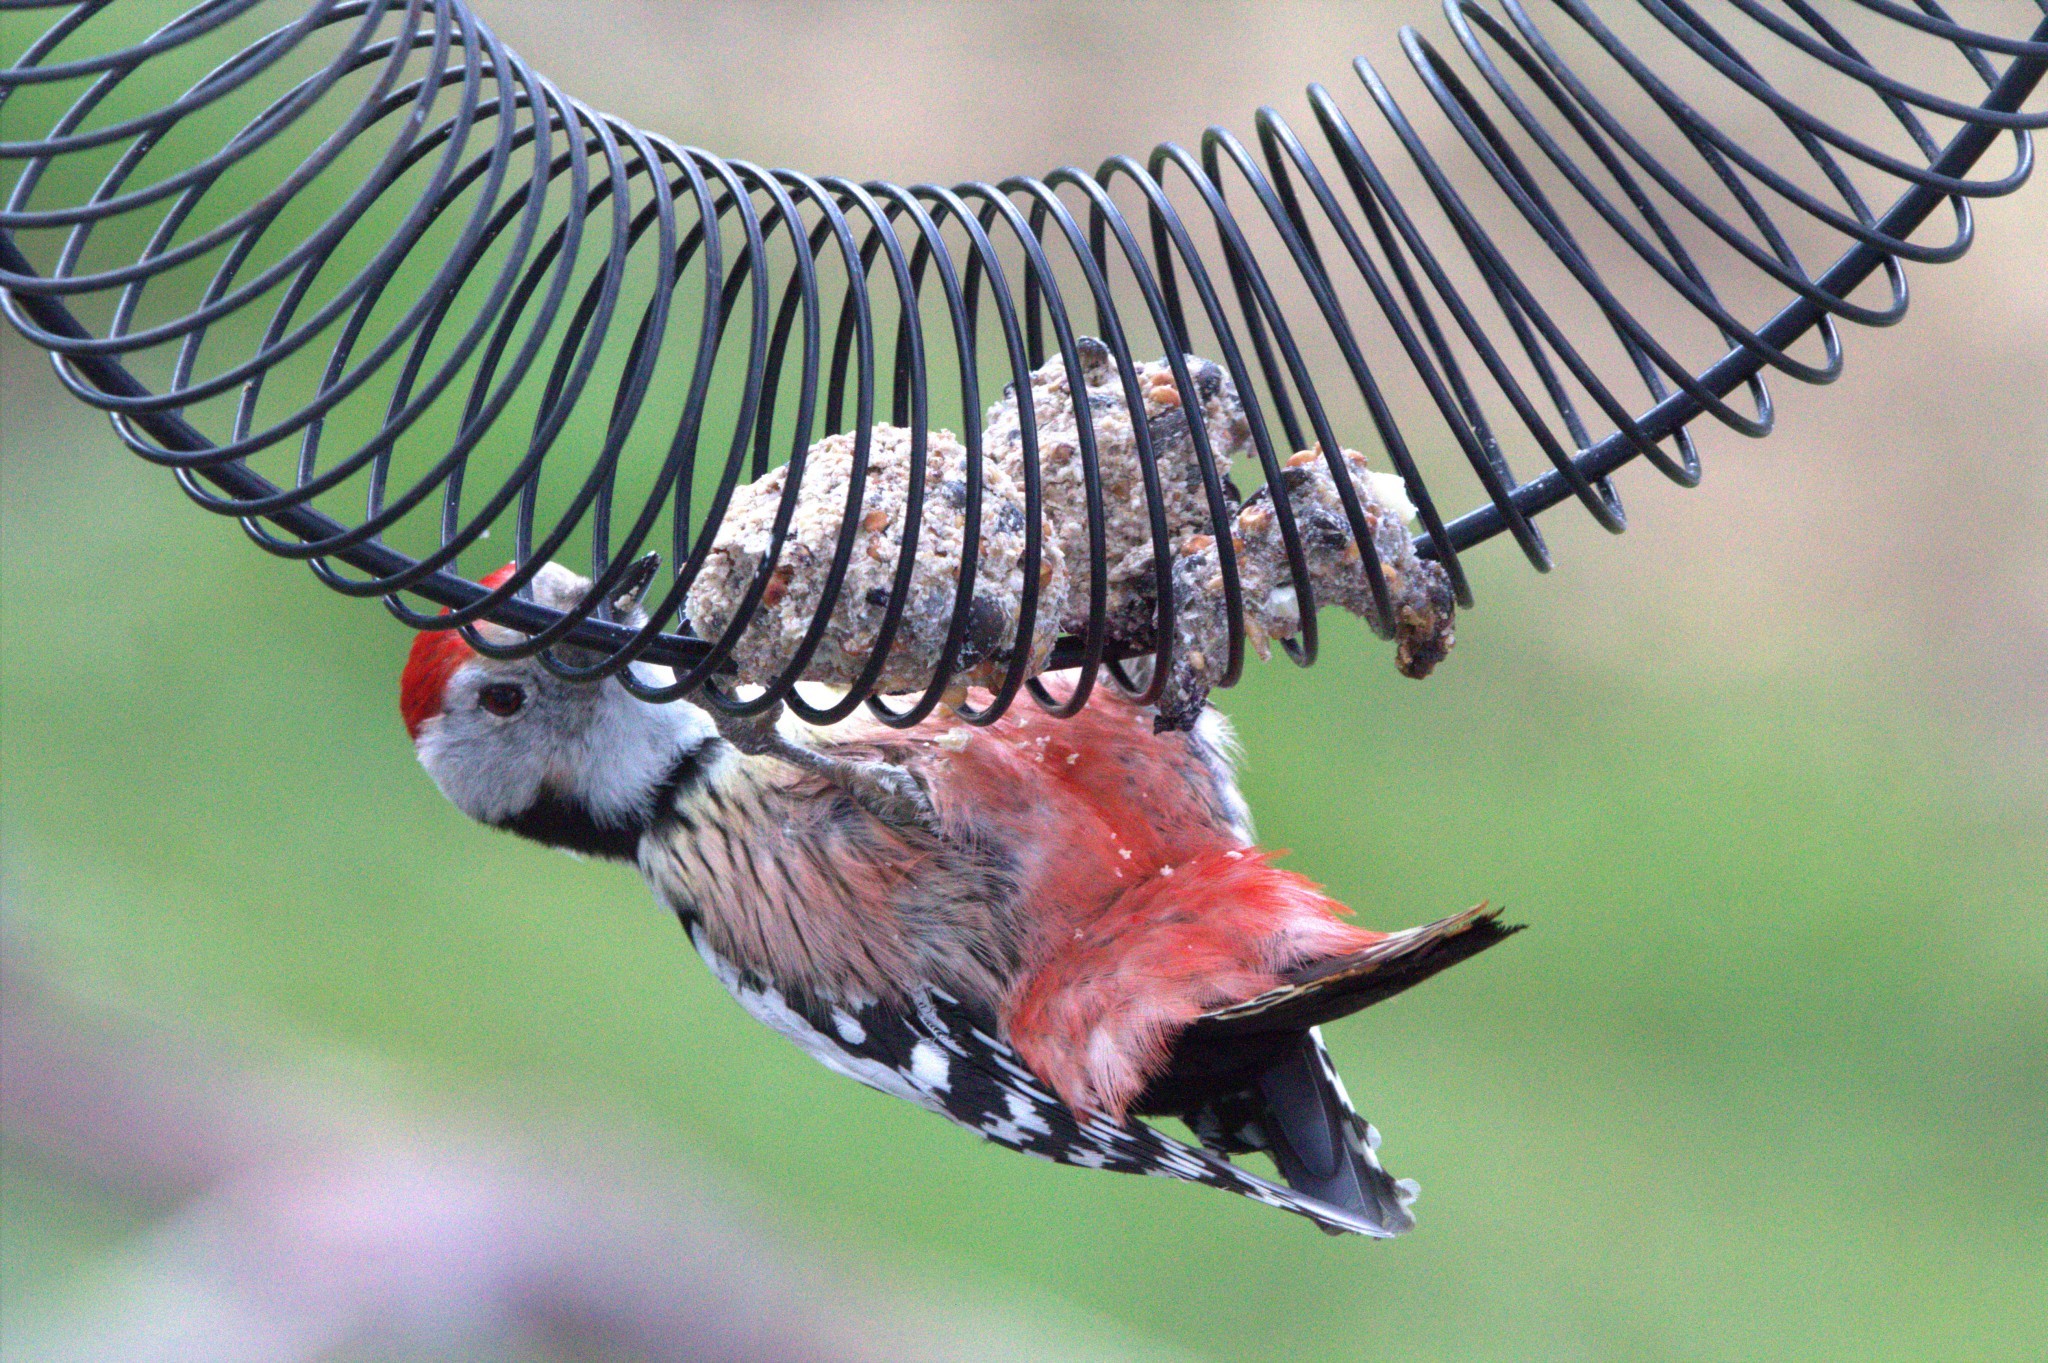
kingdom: Animalia
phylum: Chordata
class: Aves
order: Piciformes
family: Picidae
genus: Dendrocoptes
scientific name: Dendrocoptes medius
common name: Middle spotted woodpecker
